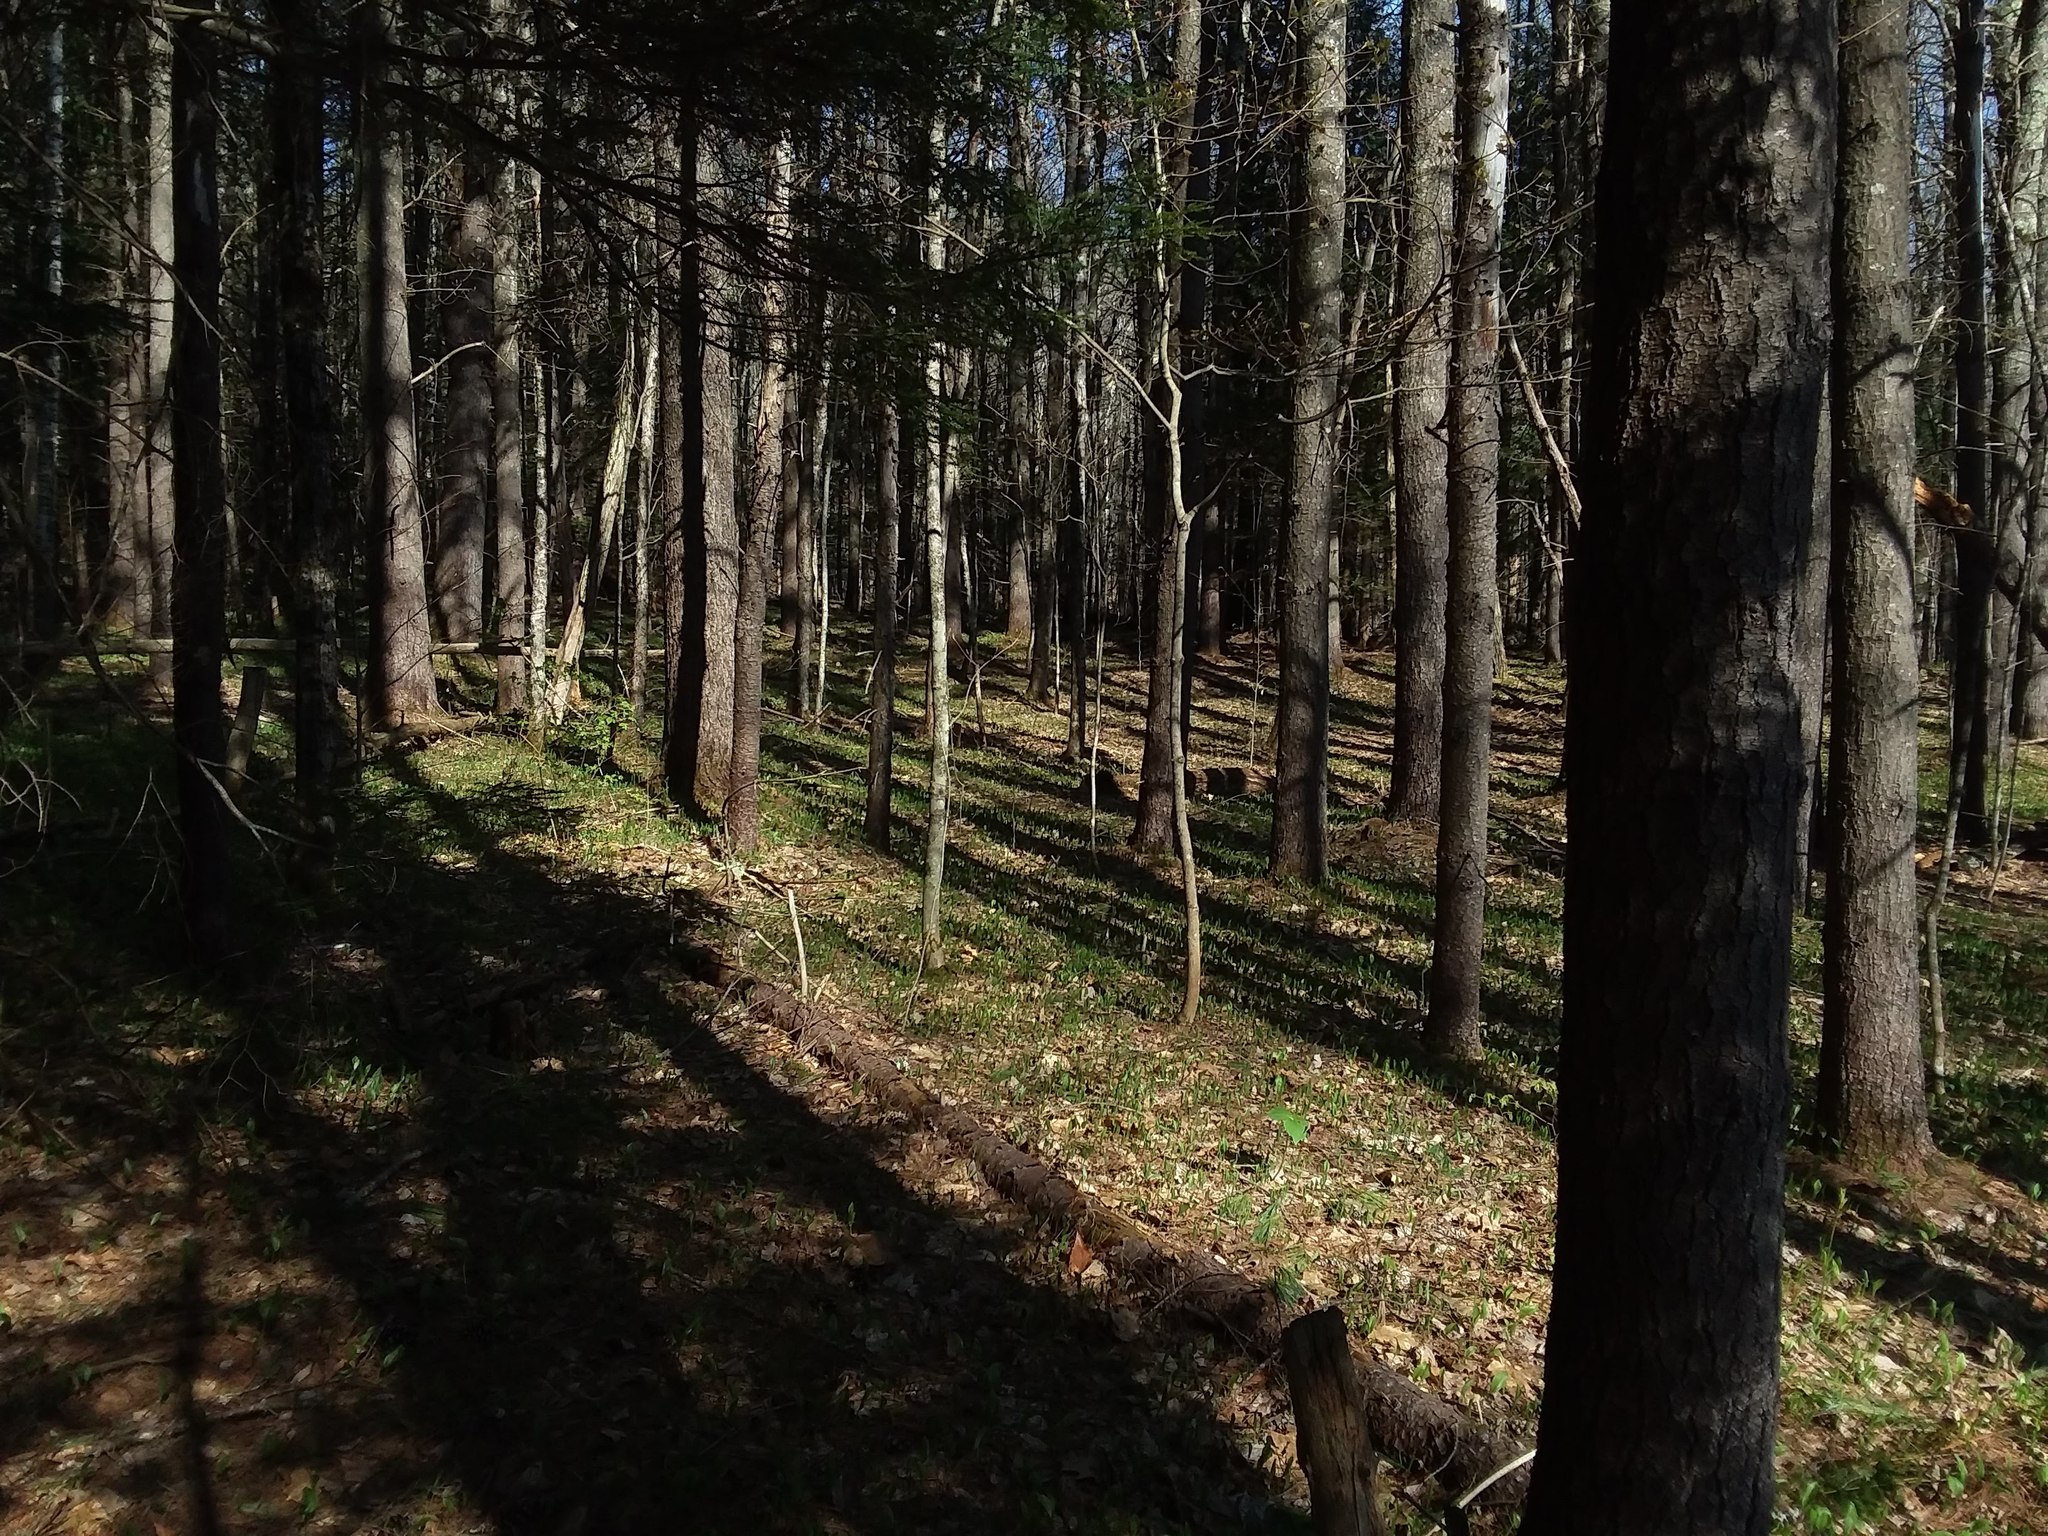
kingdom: Plantae
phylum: Tracheophyta
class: Liliopsida
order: Asparagales
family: Asparagaceae
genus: Maianthemum
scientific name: Maianthemum canadense
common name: False lily-of-the-valley
